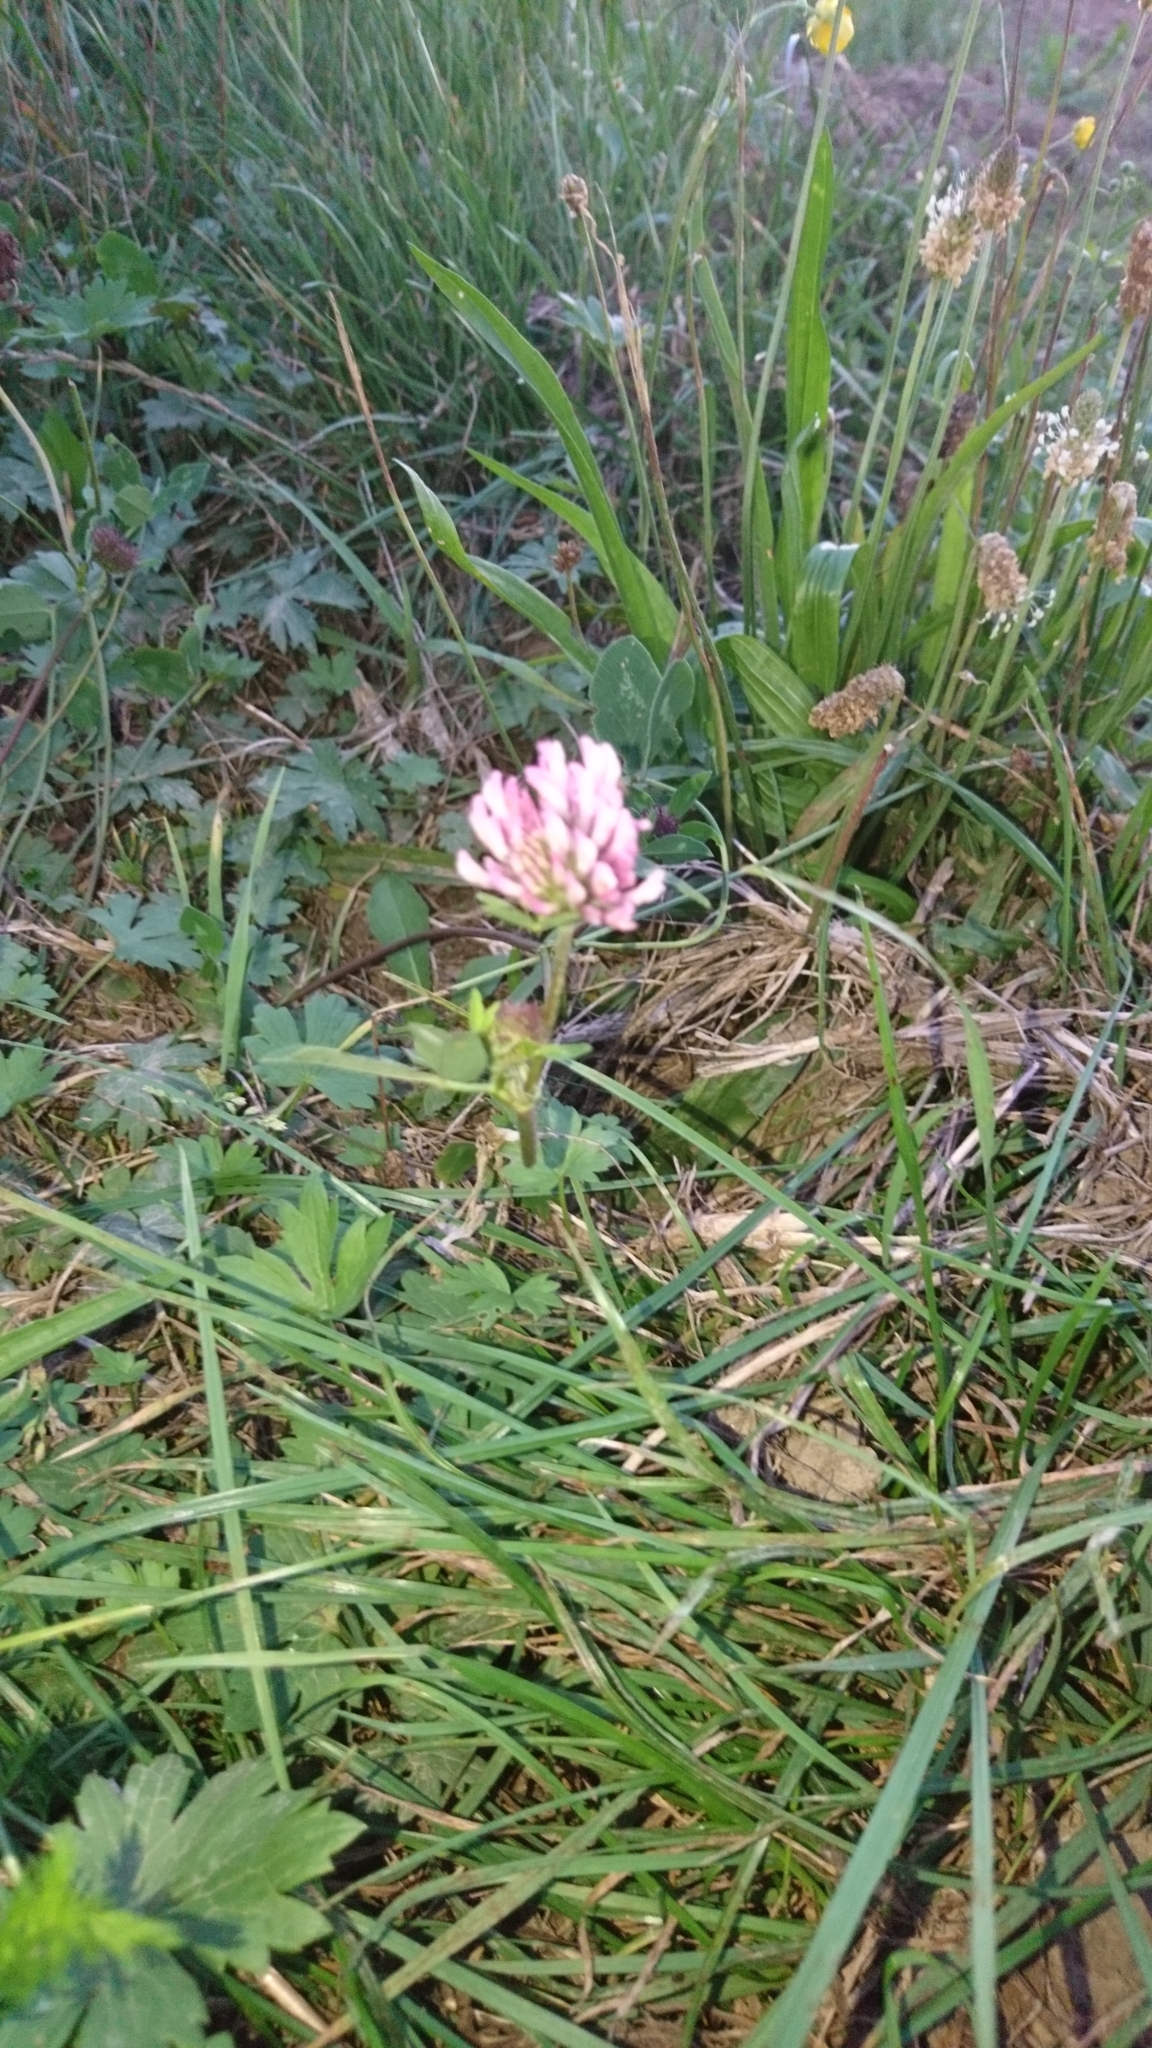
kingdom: Plantae
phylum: Tracheophyta
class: Magnoliopsida
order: Fabales
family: Fabaceae
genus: Trifolium
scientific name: Trifolium pratense
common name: Red clover
